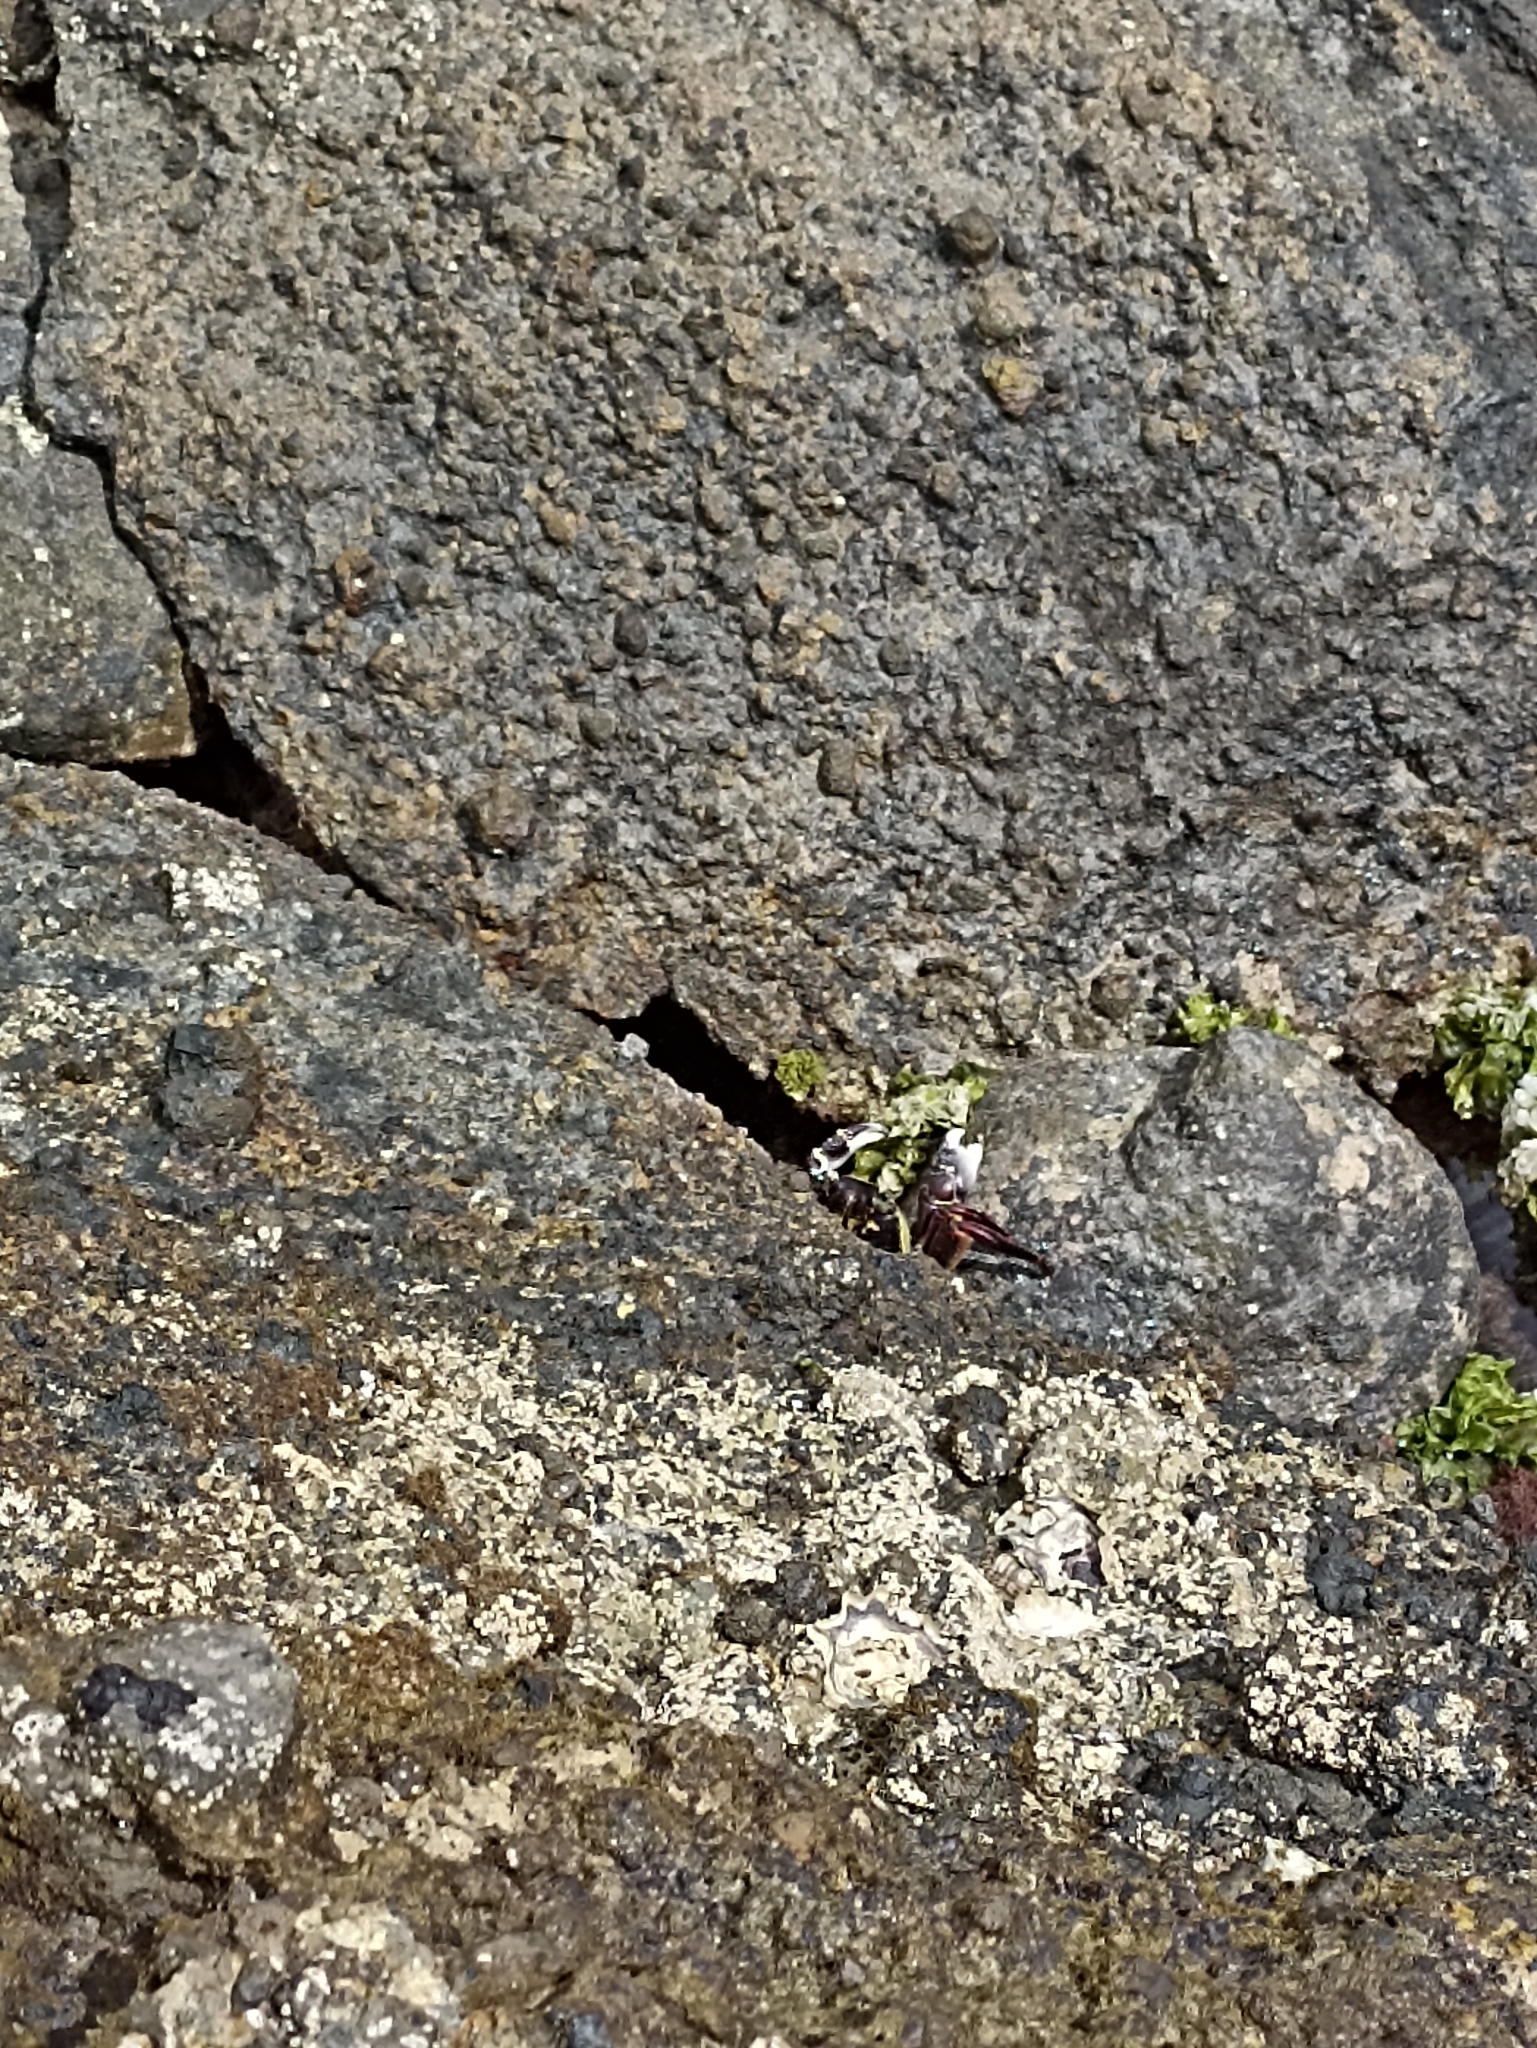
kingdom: Animalia
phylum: Arthropoda
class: Malacostraca
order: Decapoda
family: Grapsidae
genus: Leptograpsus
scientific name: Leptograpsus variegatus
